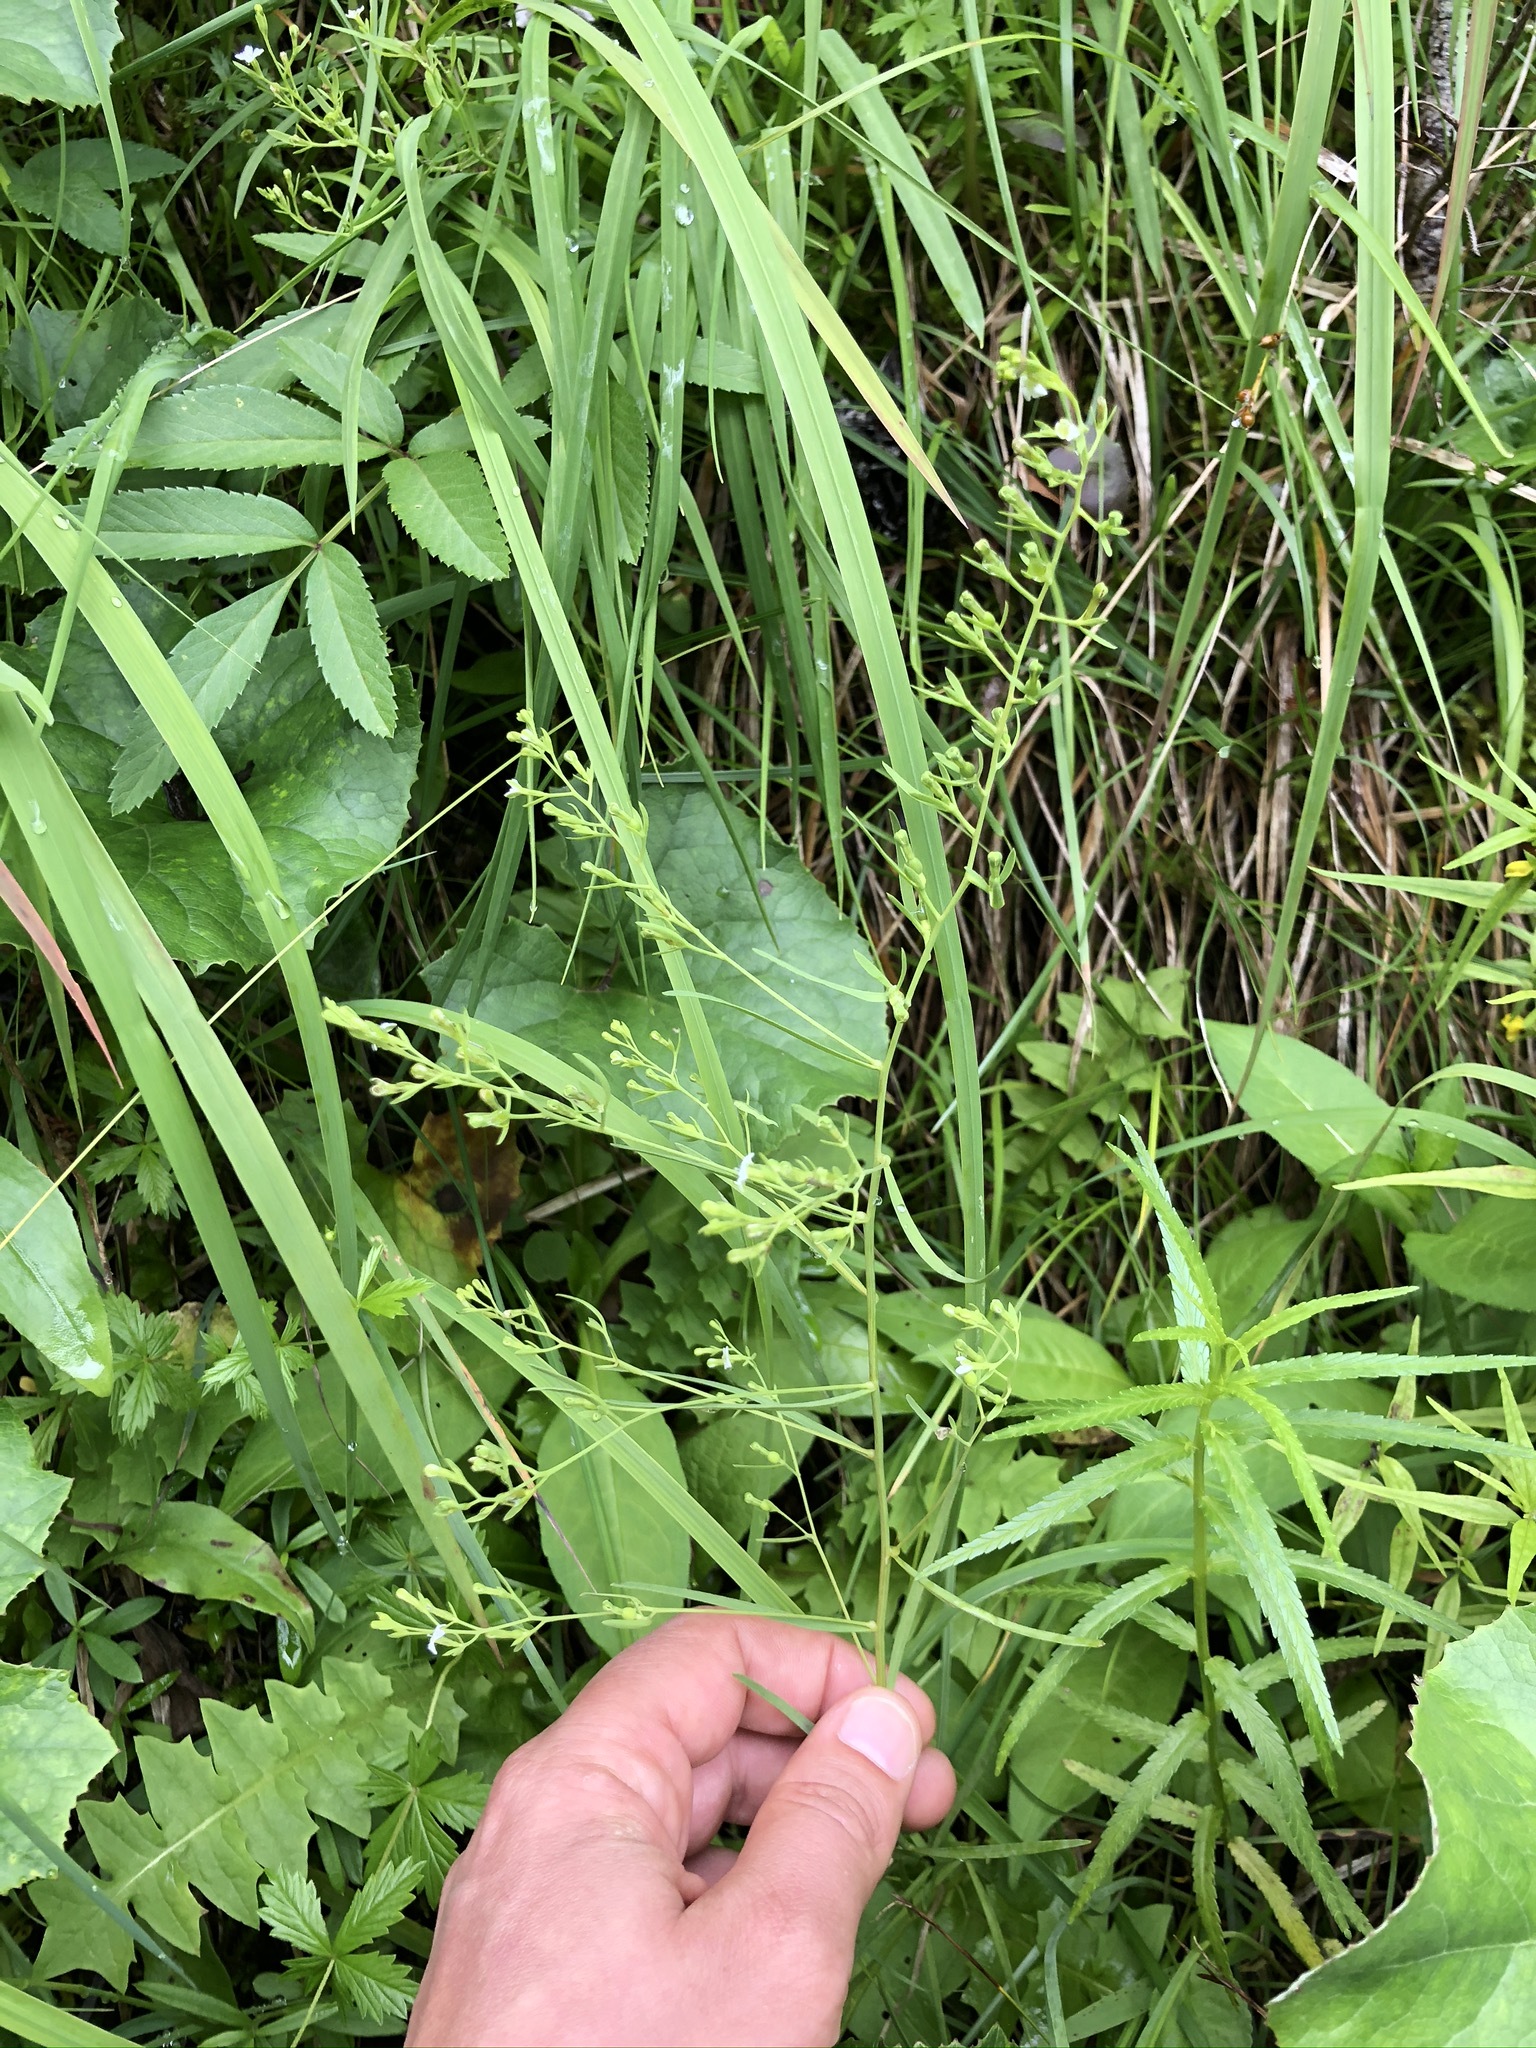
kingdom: Plantae
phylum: Tracheophyta
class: Magnoliopsida
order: Santalales
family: Thesiaceae
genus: Thesium
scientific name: Thesium alpinum
